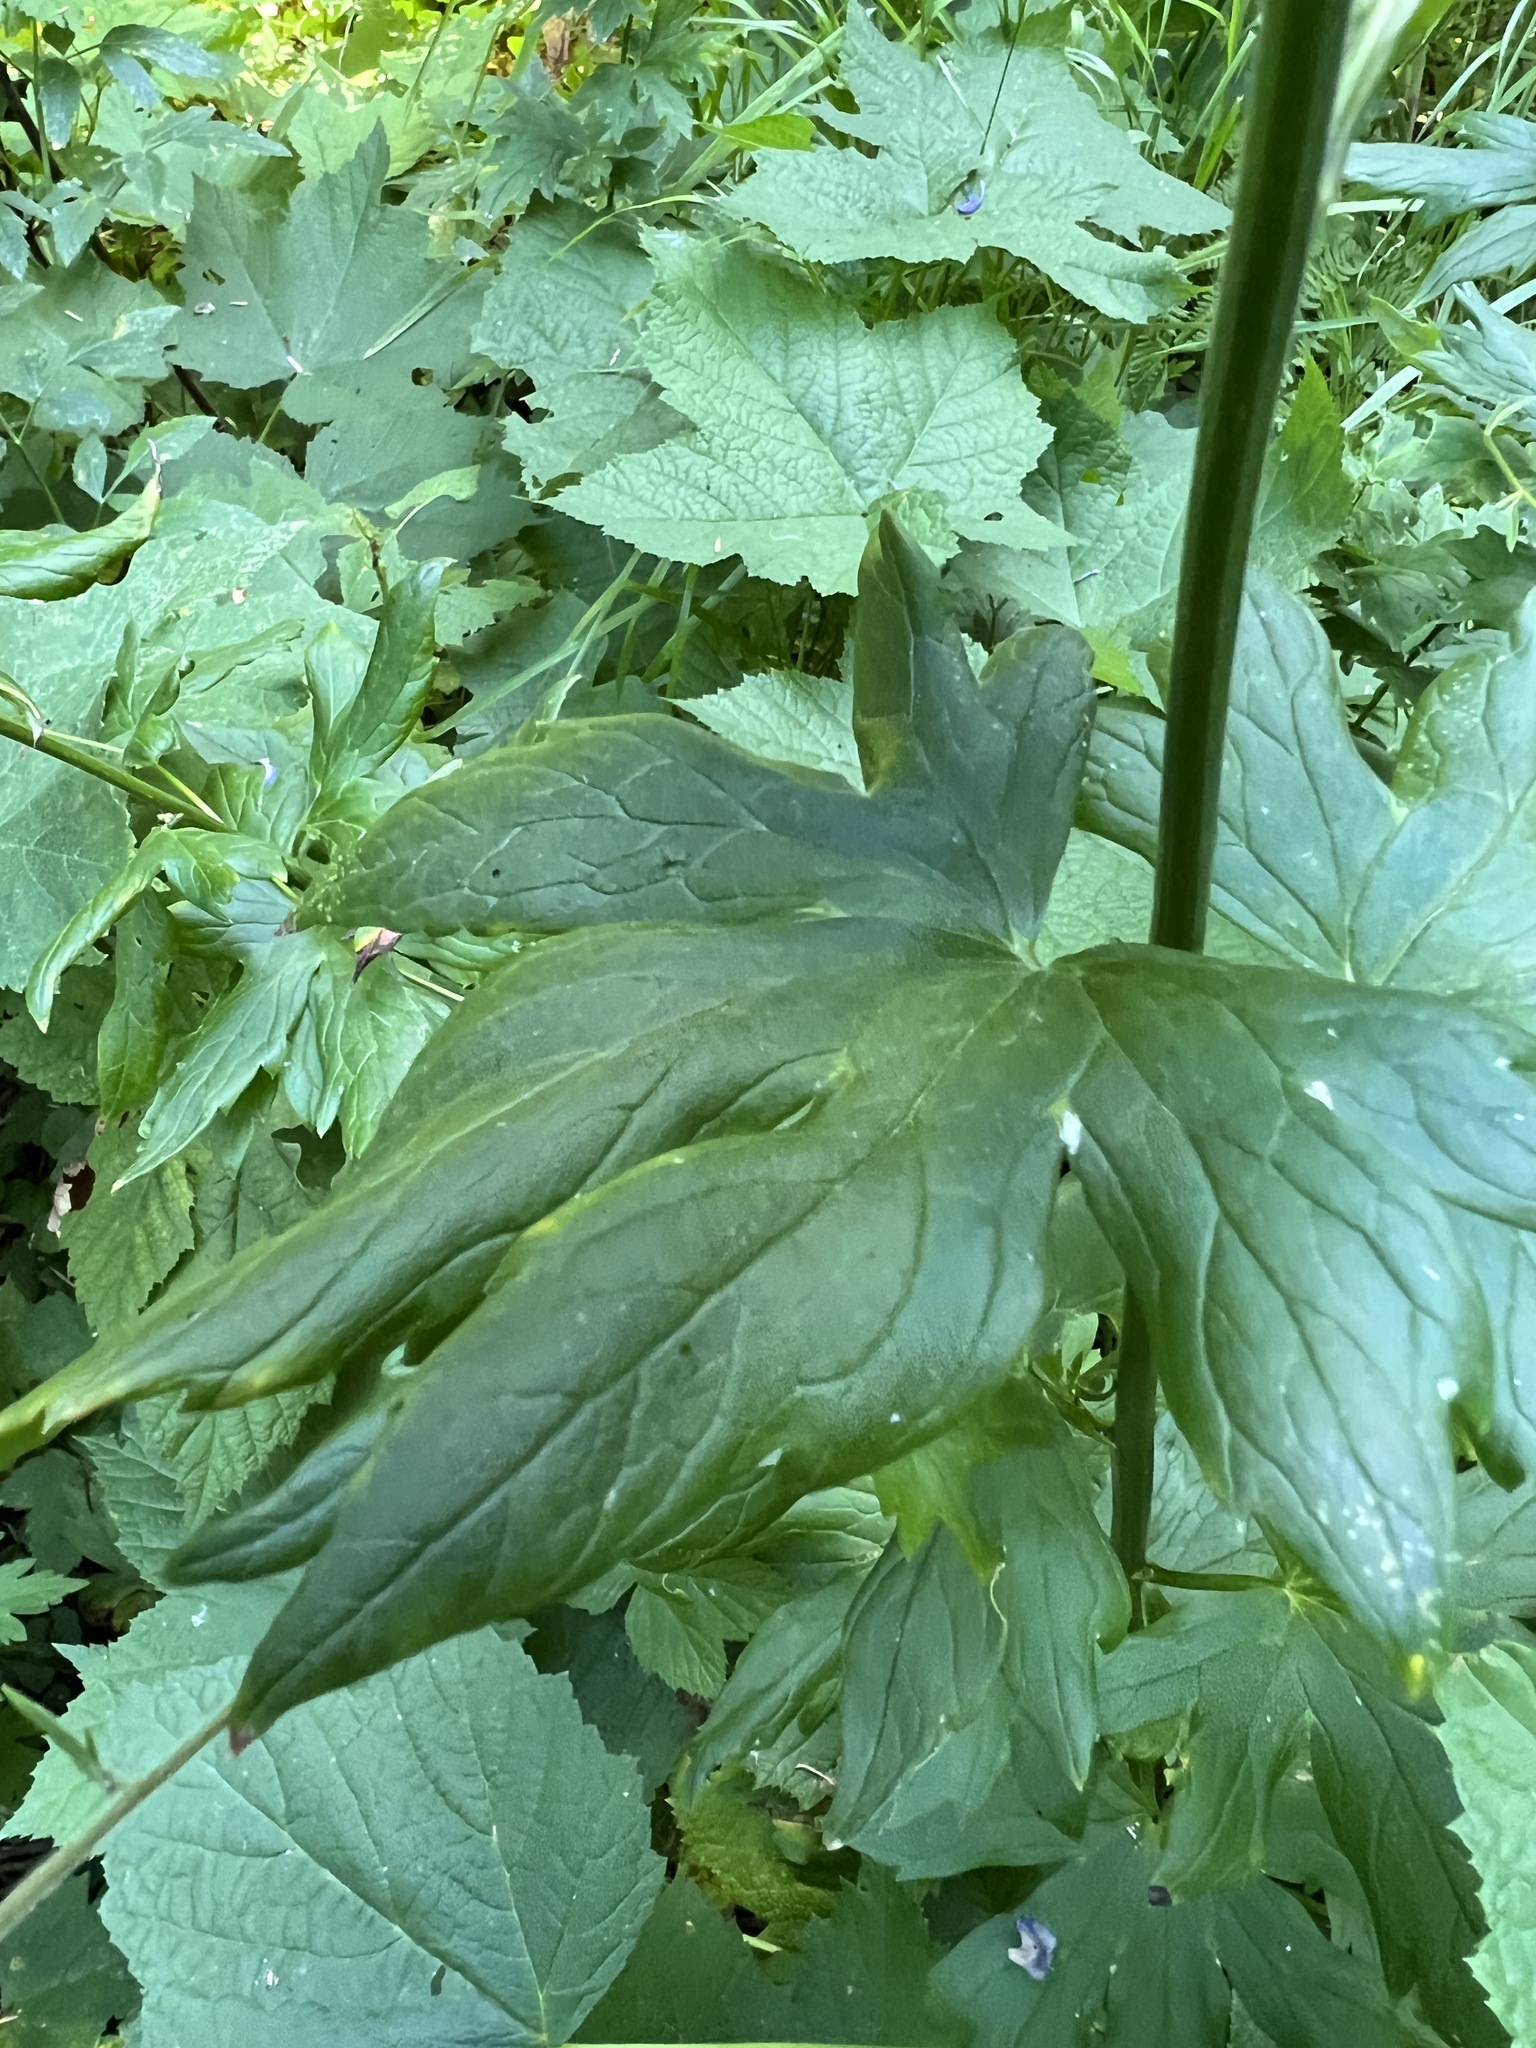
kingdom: Plantae
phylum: Tracheophyta
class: Magnoliopsida
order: Ranunculales
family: Ranunculaceae
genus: Aconitum
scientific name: Aconitum columbianum
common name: Columbia aconite
